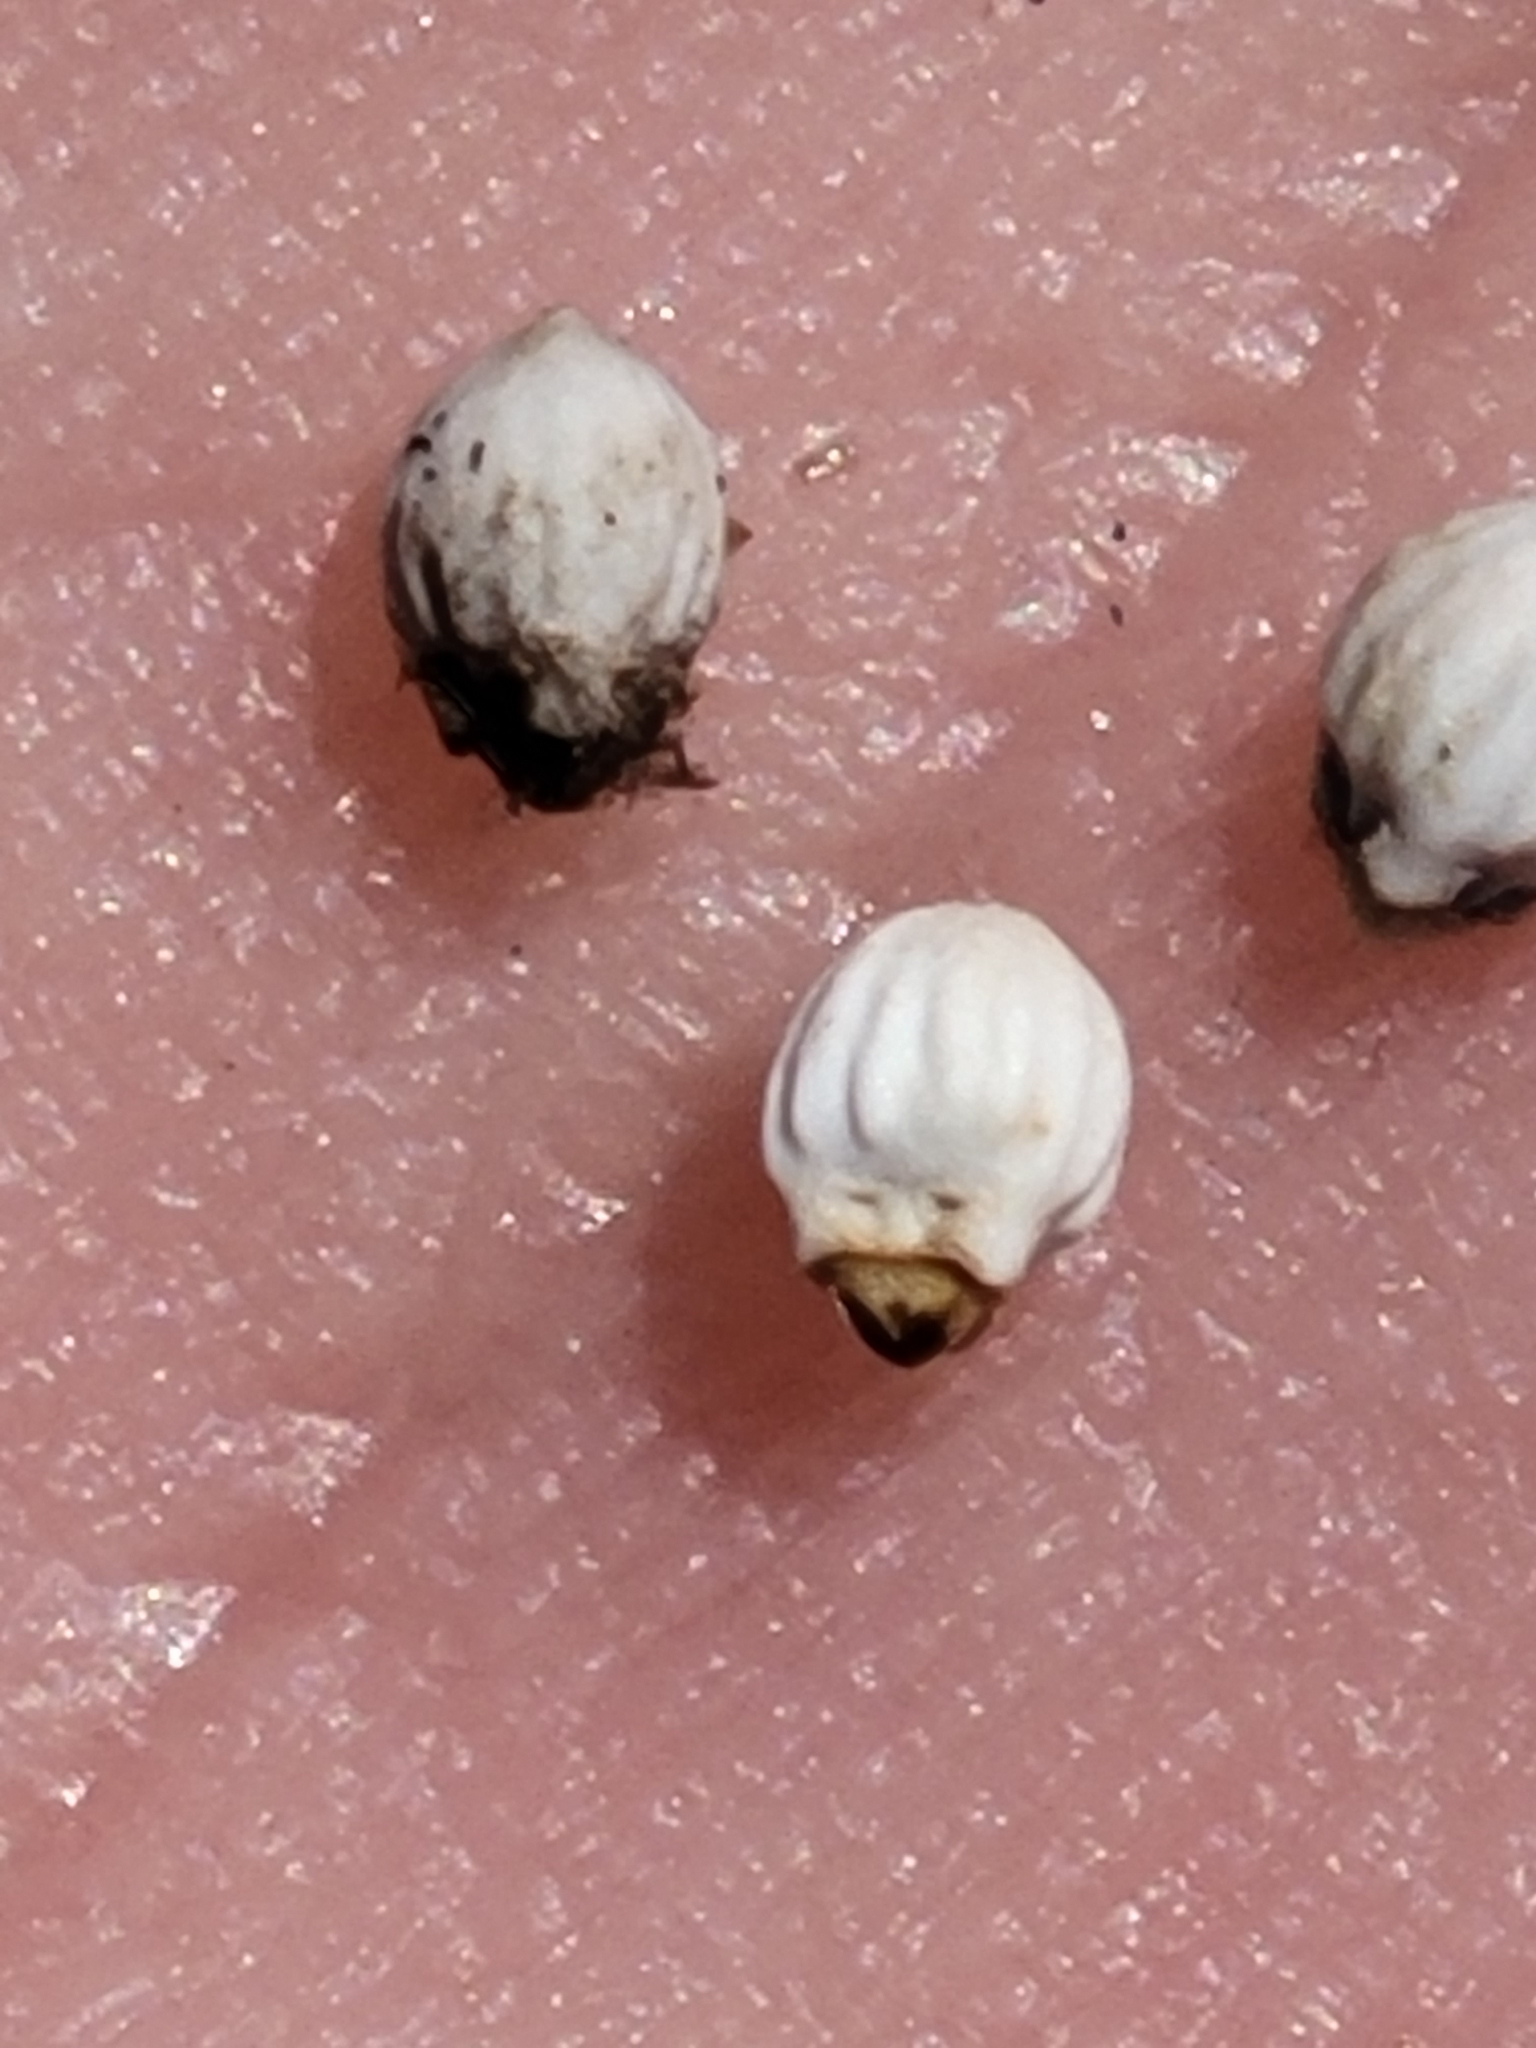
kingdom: Plantae
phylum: Tracheophyta
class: Liliopsida
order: Poales
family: Cyperaceae
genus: Scleria
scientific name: Scleria georgiana
